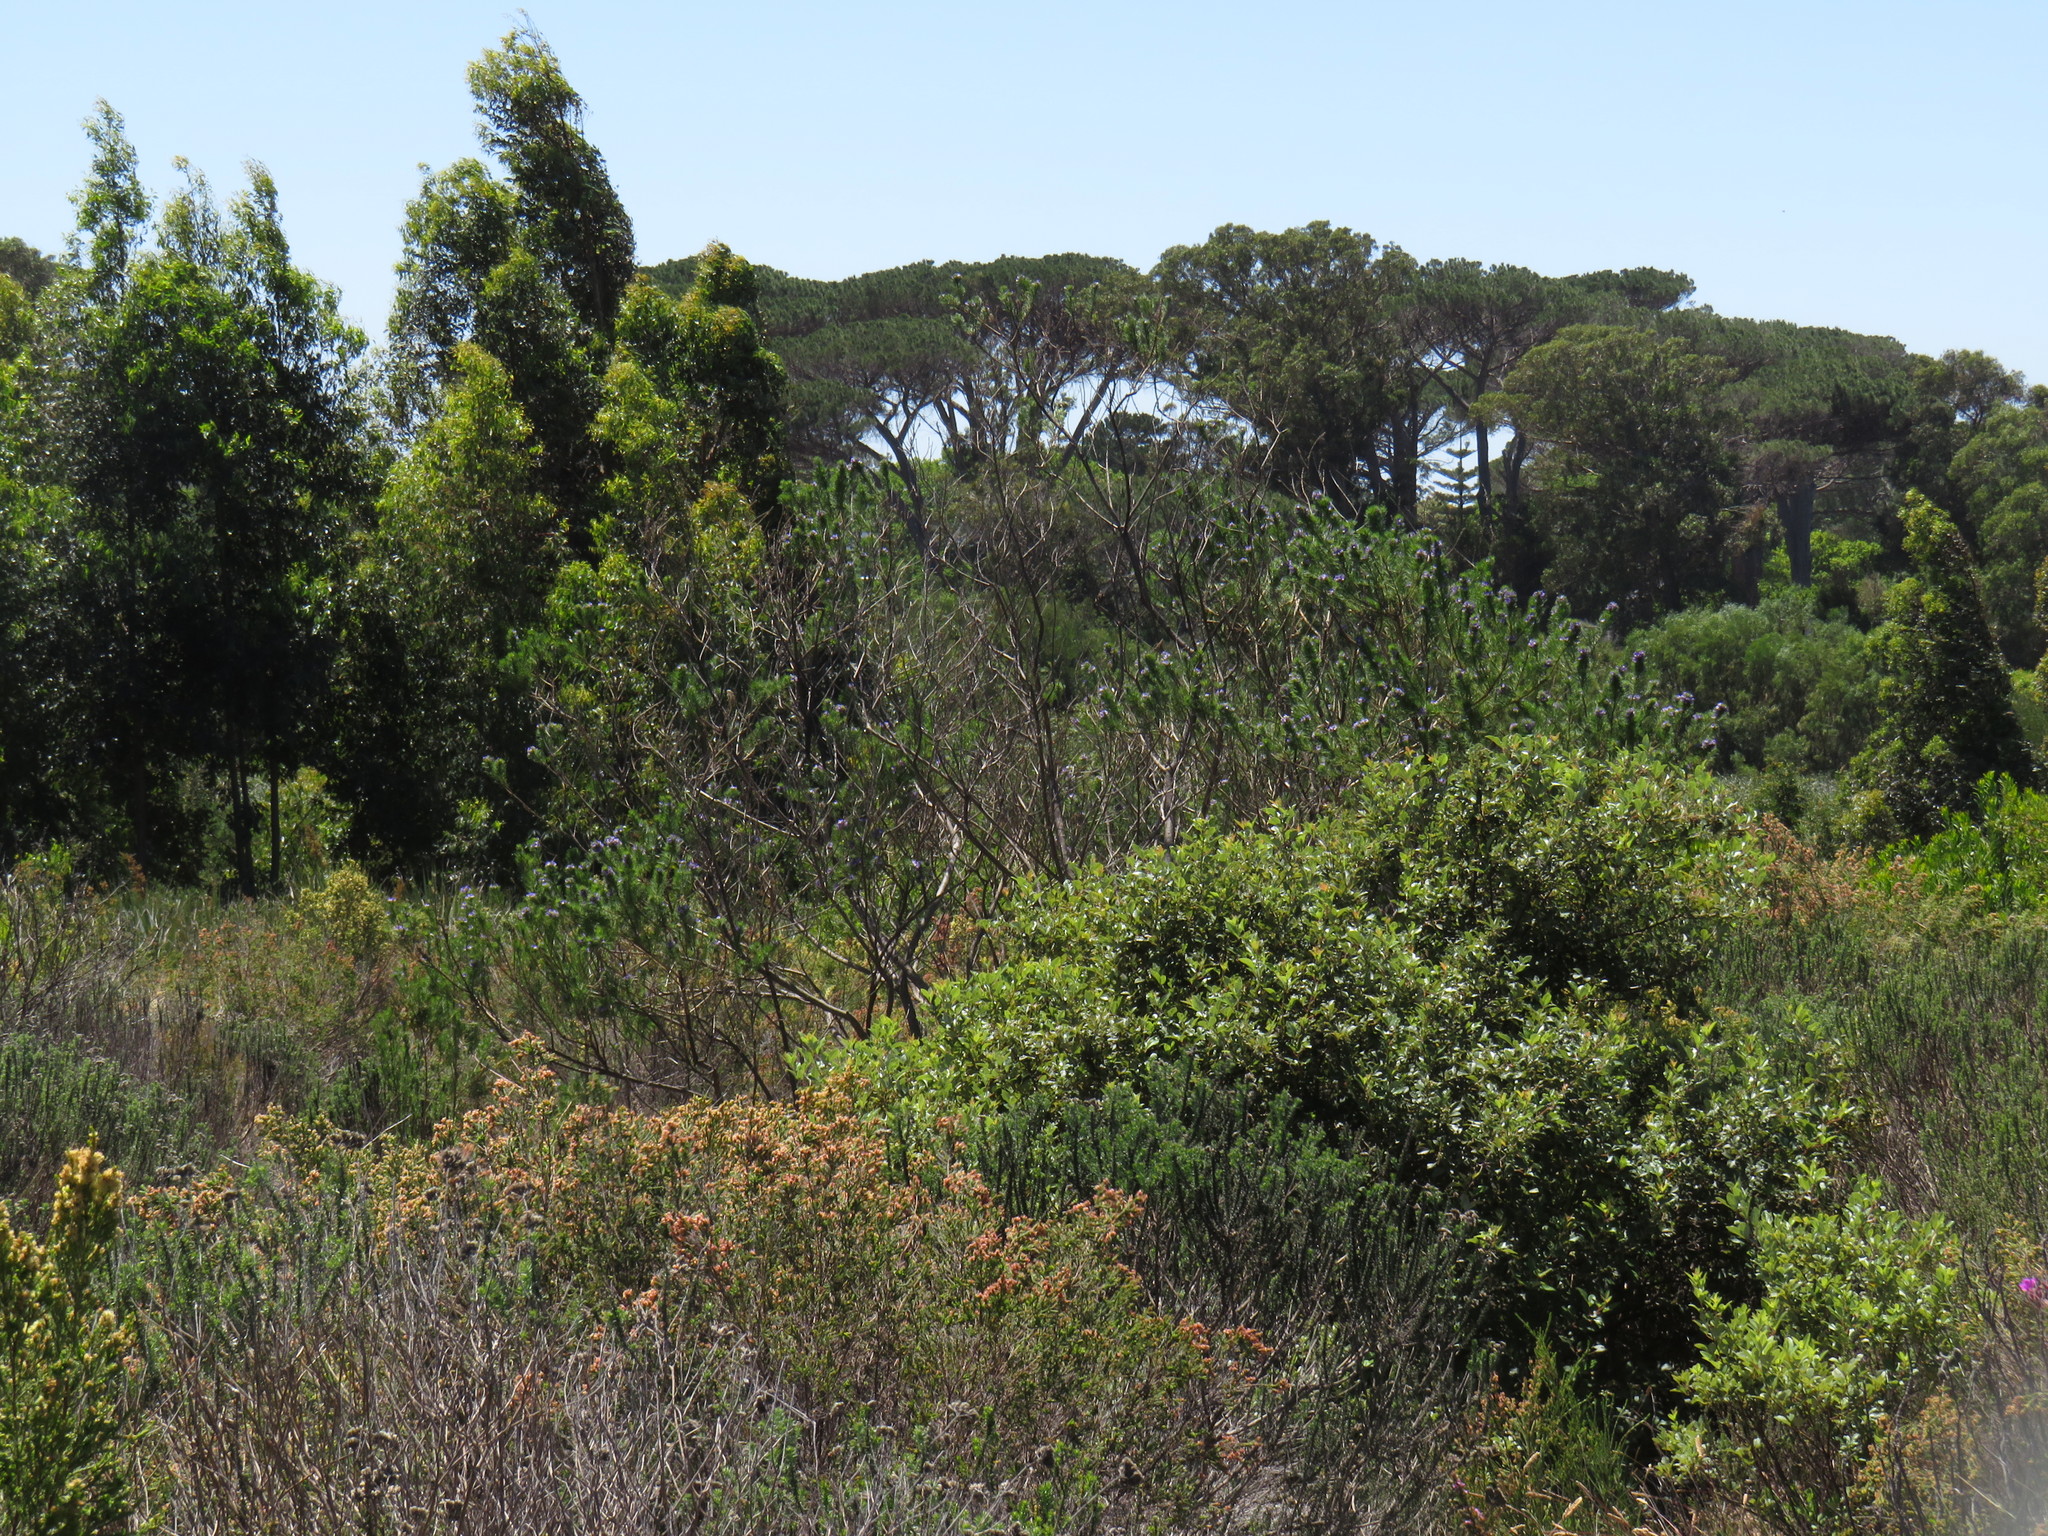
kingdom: Plantae
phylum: Tracheophyta
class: Magnoliopsida
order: Fabales
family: Fabaceae
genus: Psoralea
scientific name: Psoralea pinnata
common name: African scurfpea
